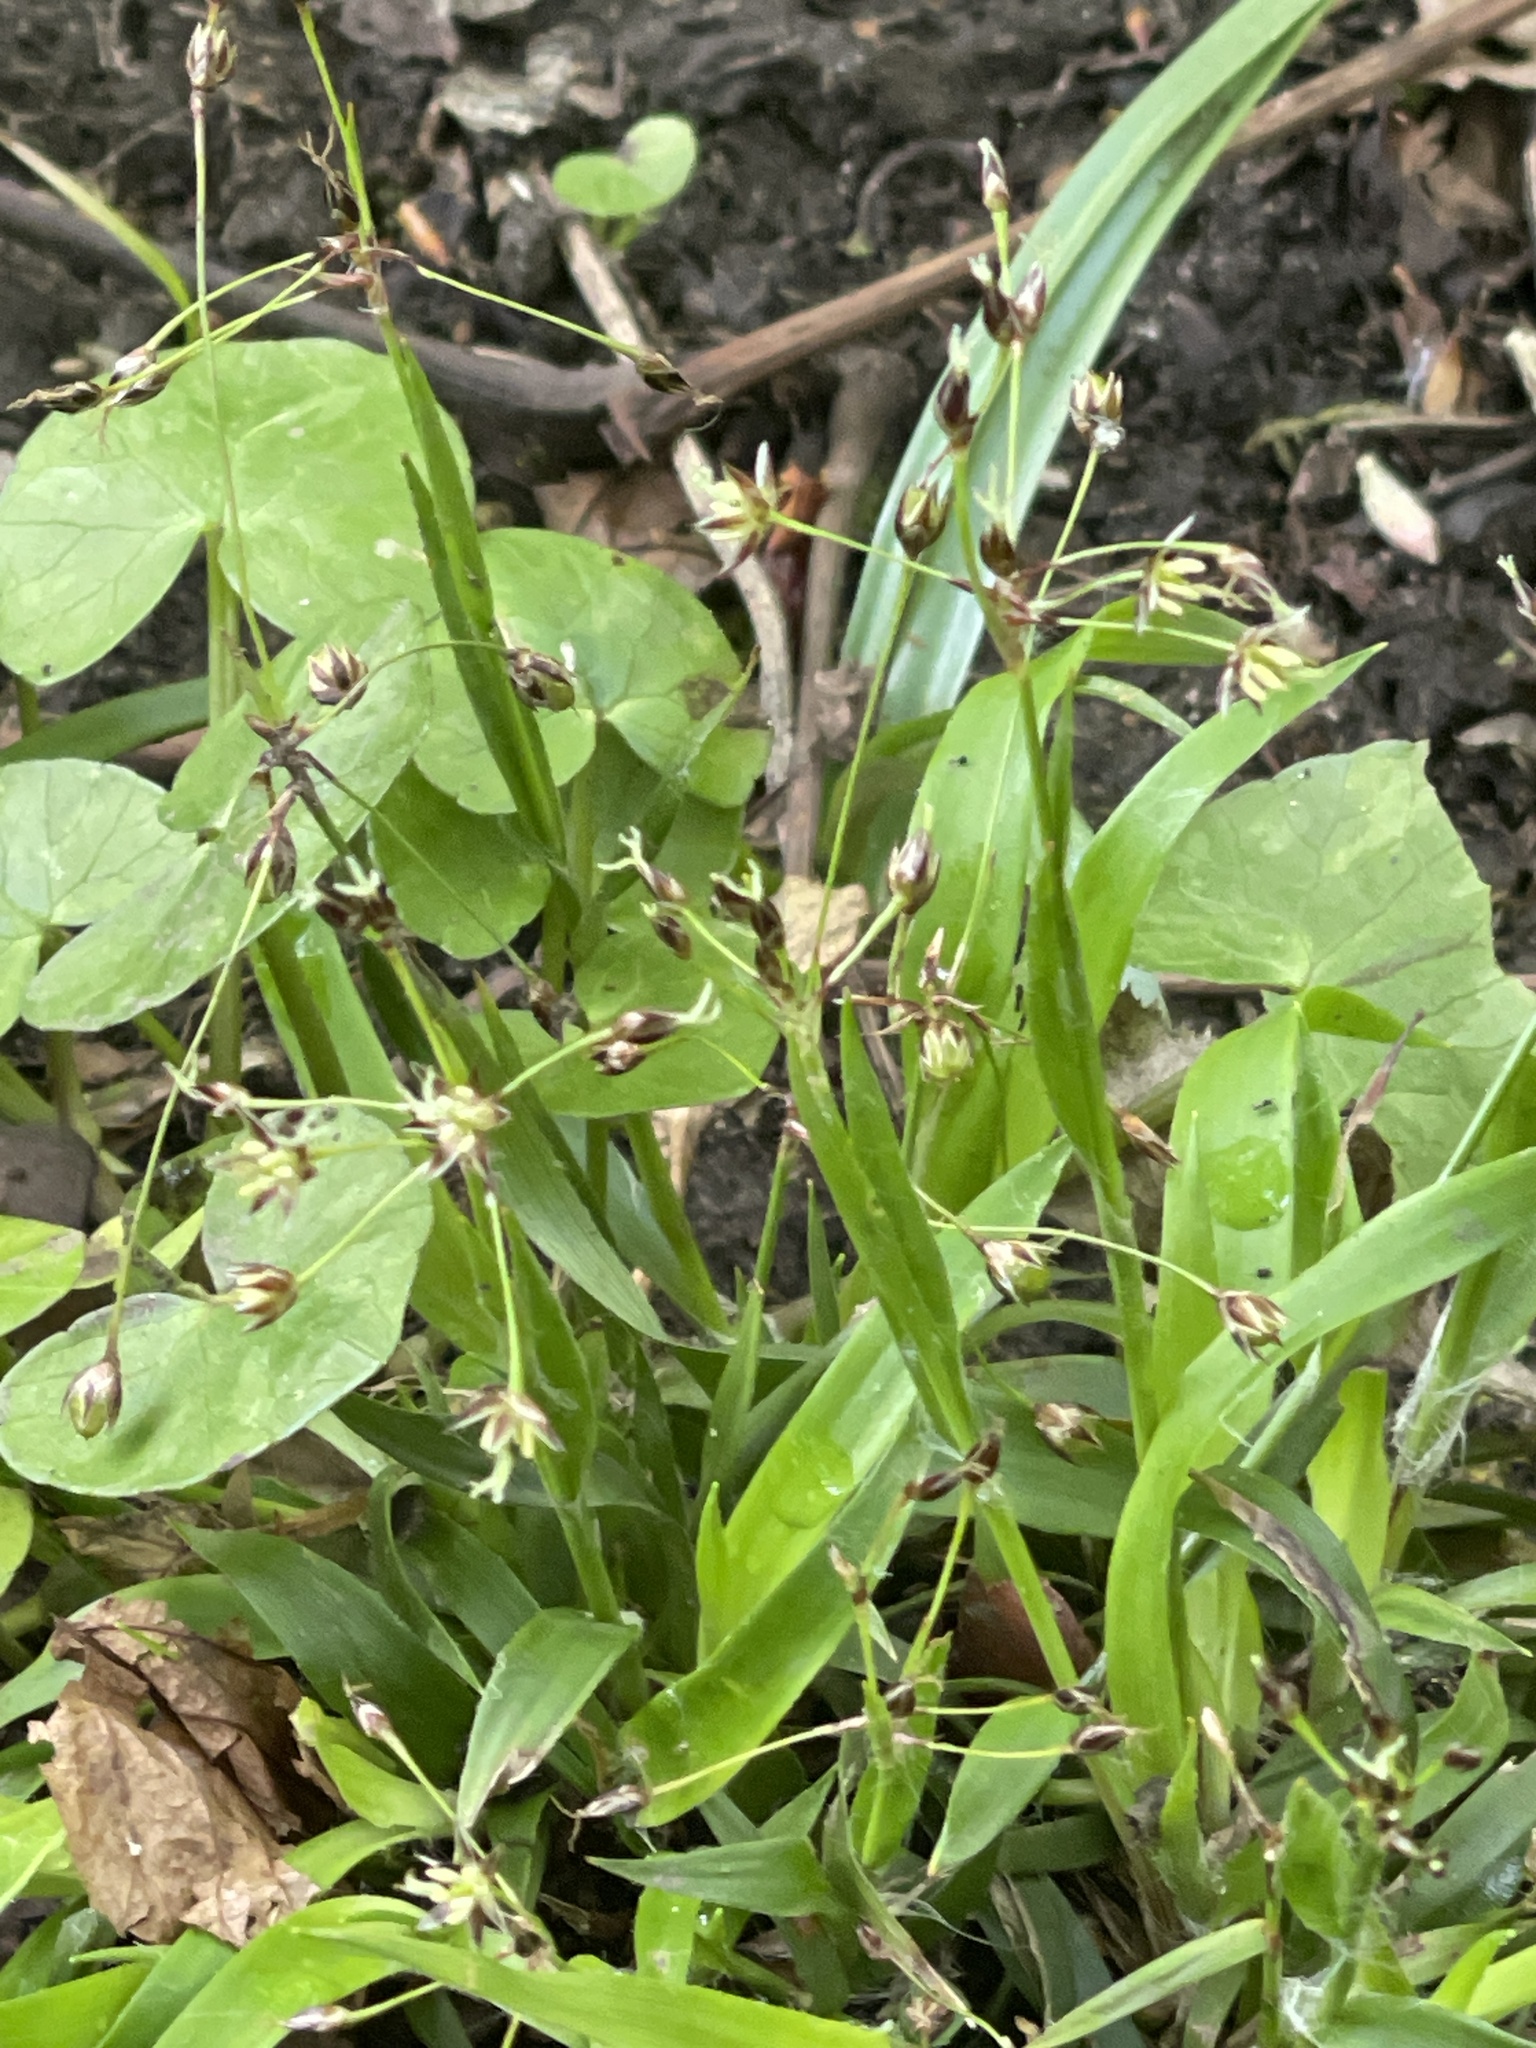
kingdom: Plantae
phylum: Tracheophyta
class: Liliopsida
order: Poales
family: Juncaceae
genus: Luzula
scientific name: Luzula pilosa
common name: Hairy wood-rush
